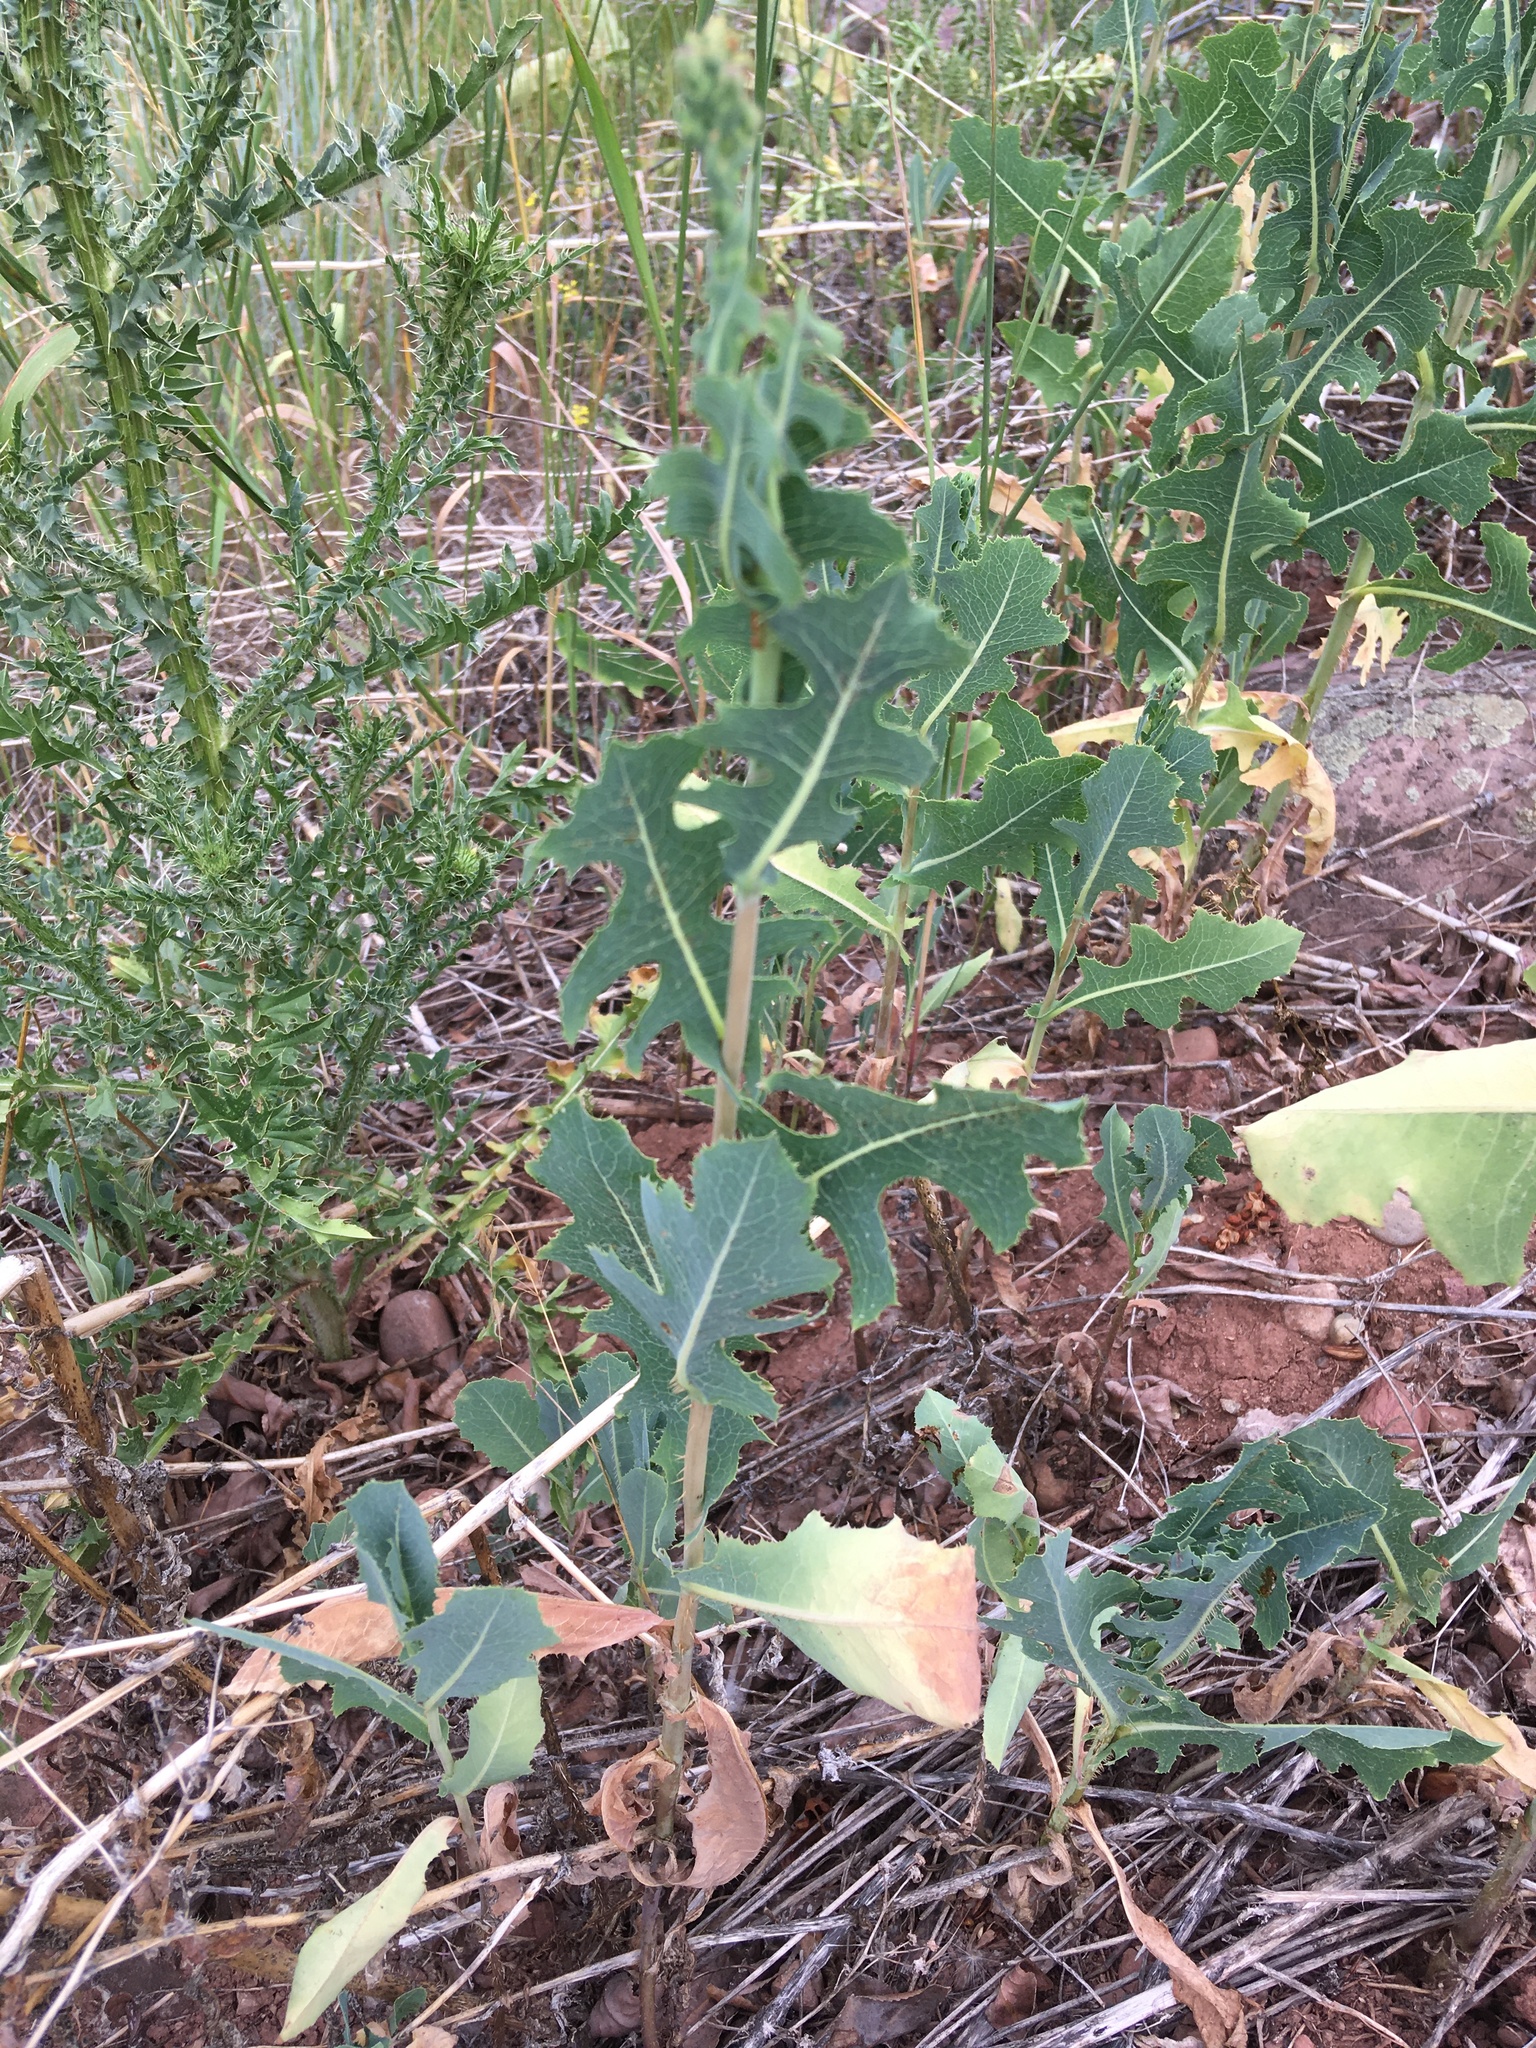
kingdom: Plantae
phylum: Tracheophyta
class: Magnoliopsida
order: Asterales
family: Asteraceae
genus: Lactuca
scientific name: Lactuca serriola
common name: Prickly lettuce
